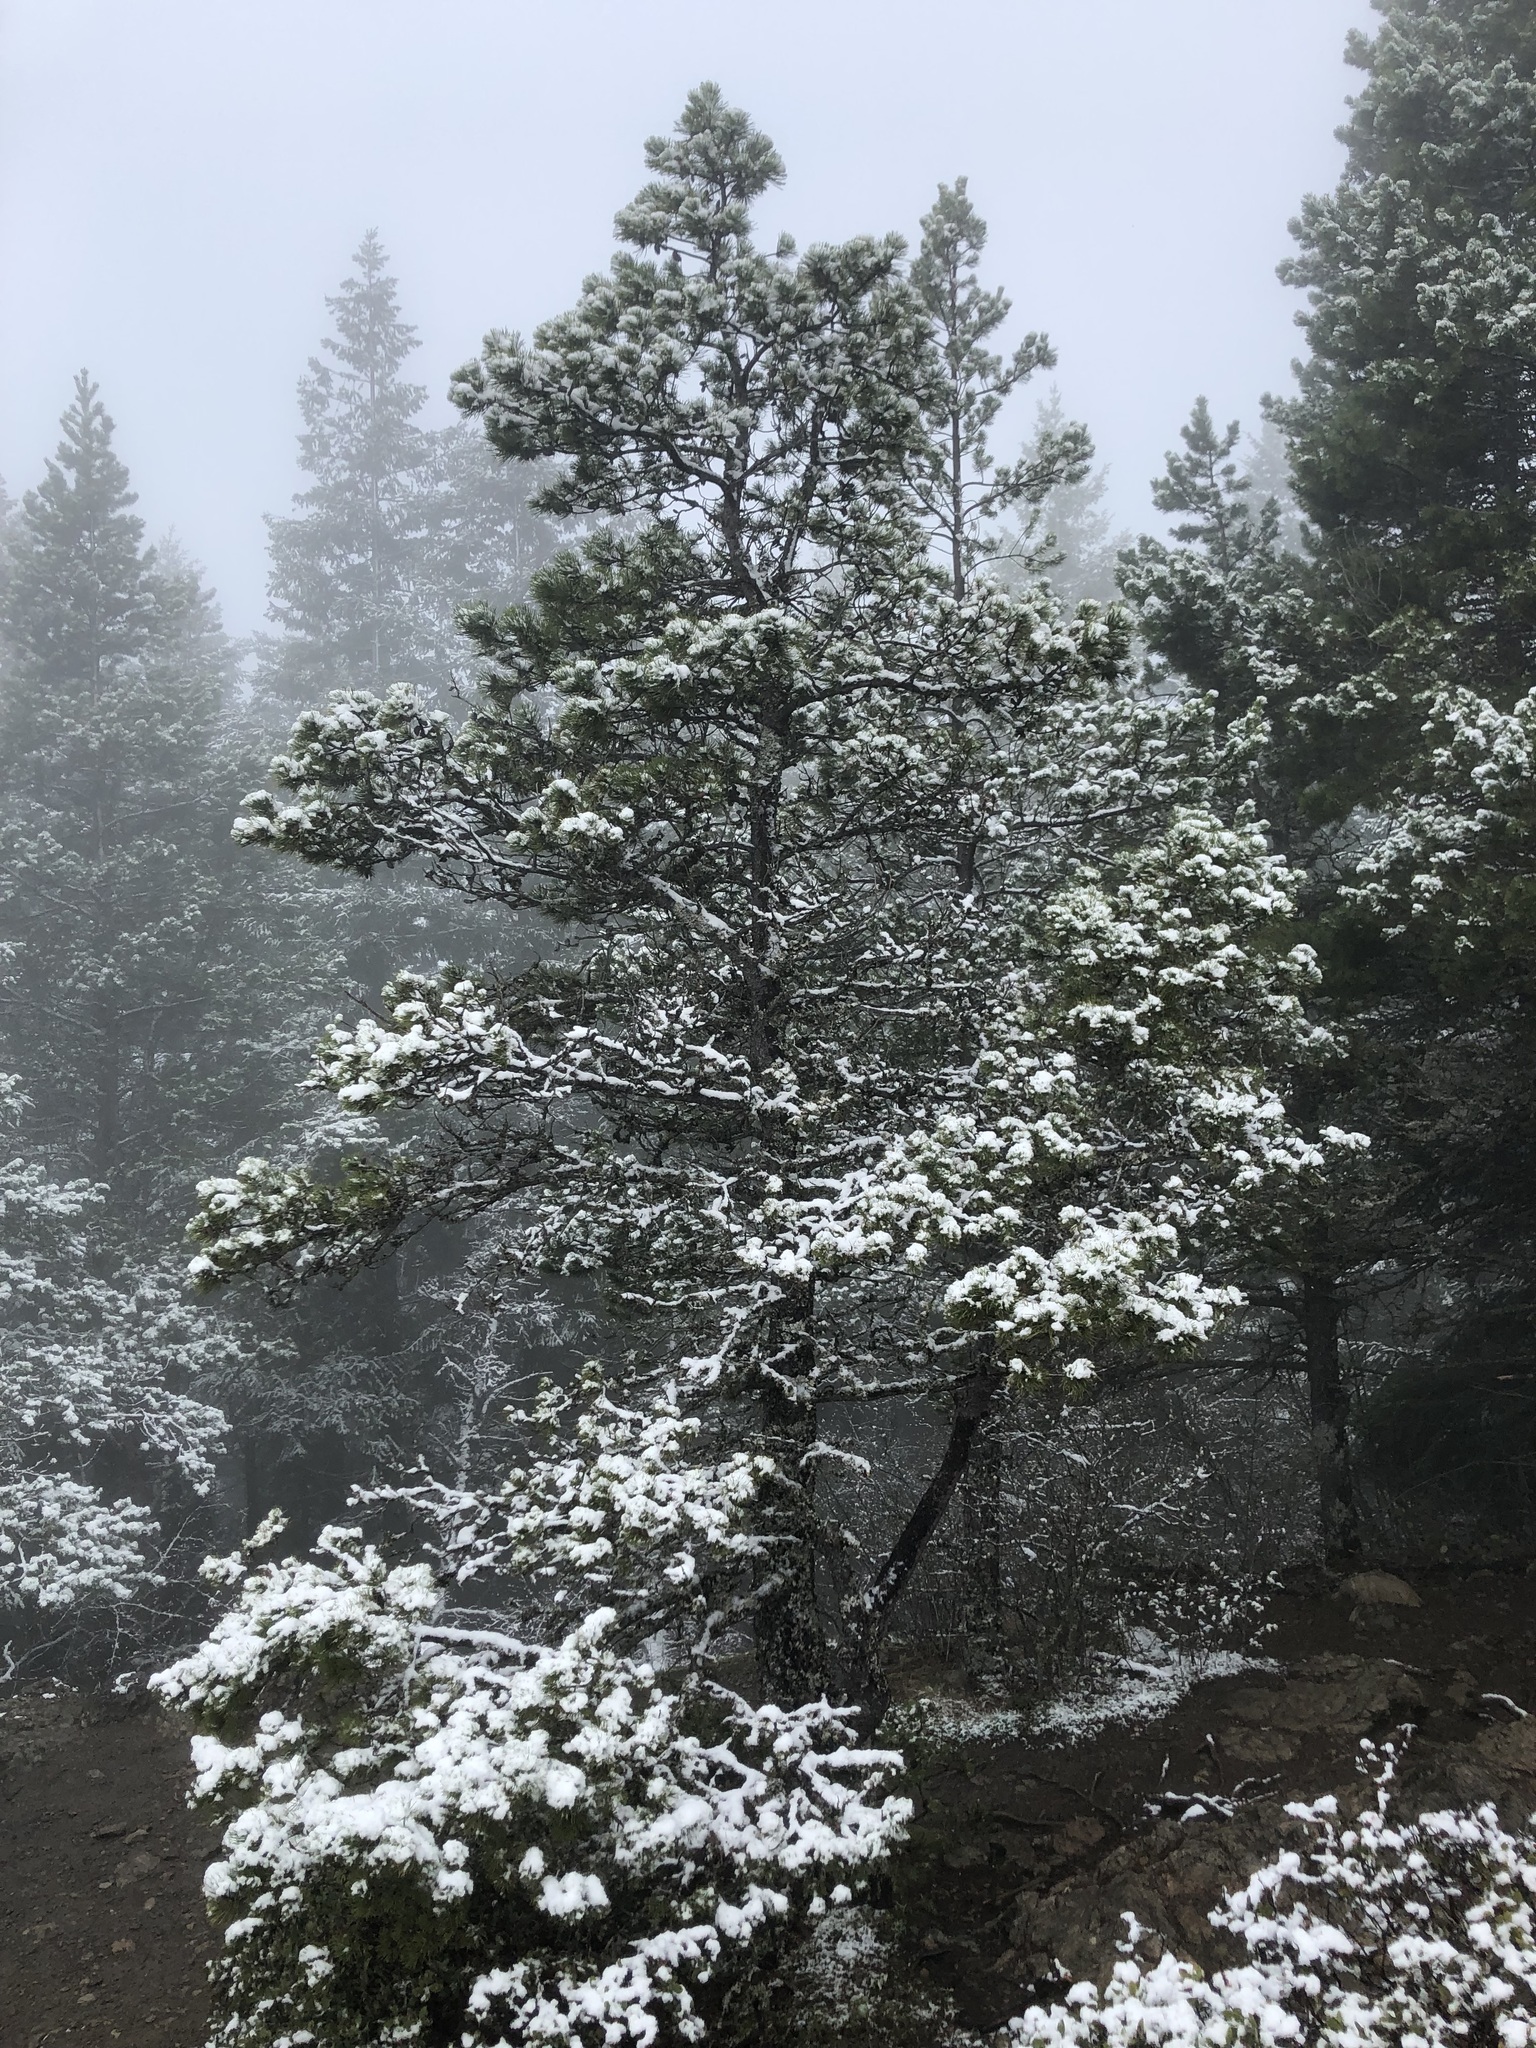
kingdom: Plantae
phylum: Tracheophyta
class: Pinopsida
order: Pinales
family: Pinaceae
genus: Pinus
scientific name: Pinus contorta
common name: Lodgepole pine
